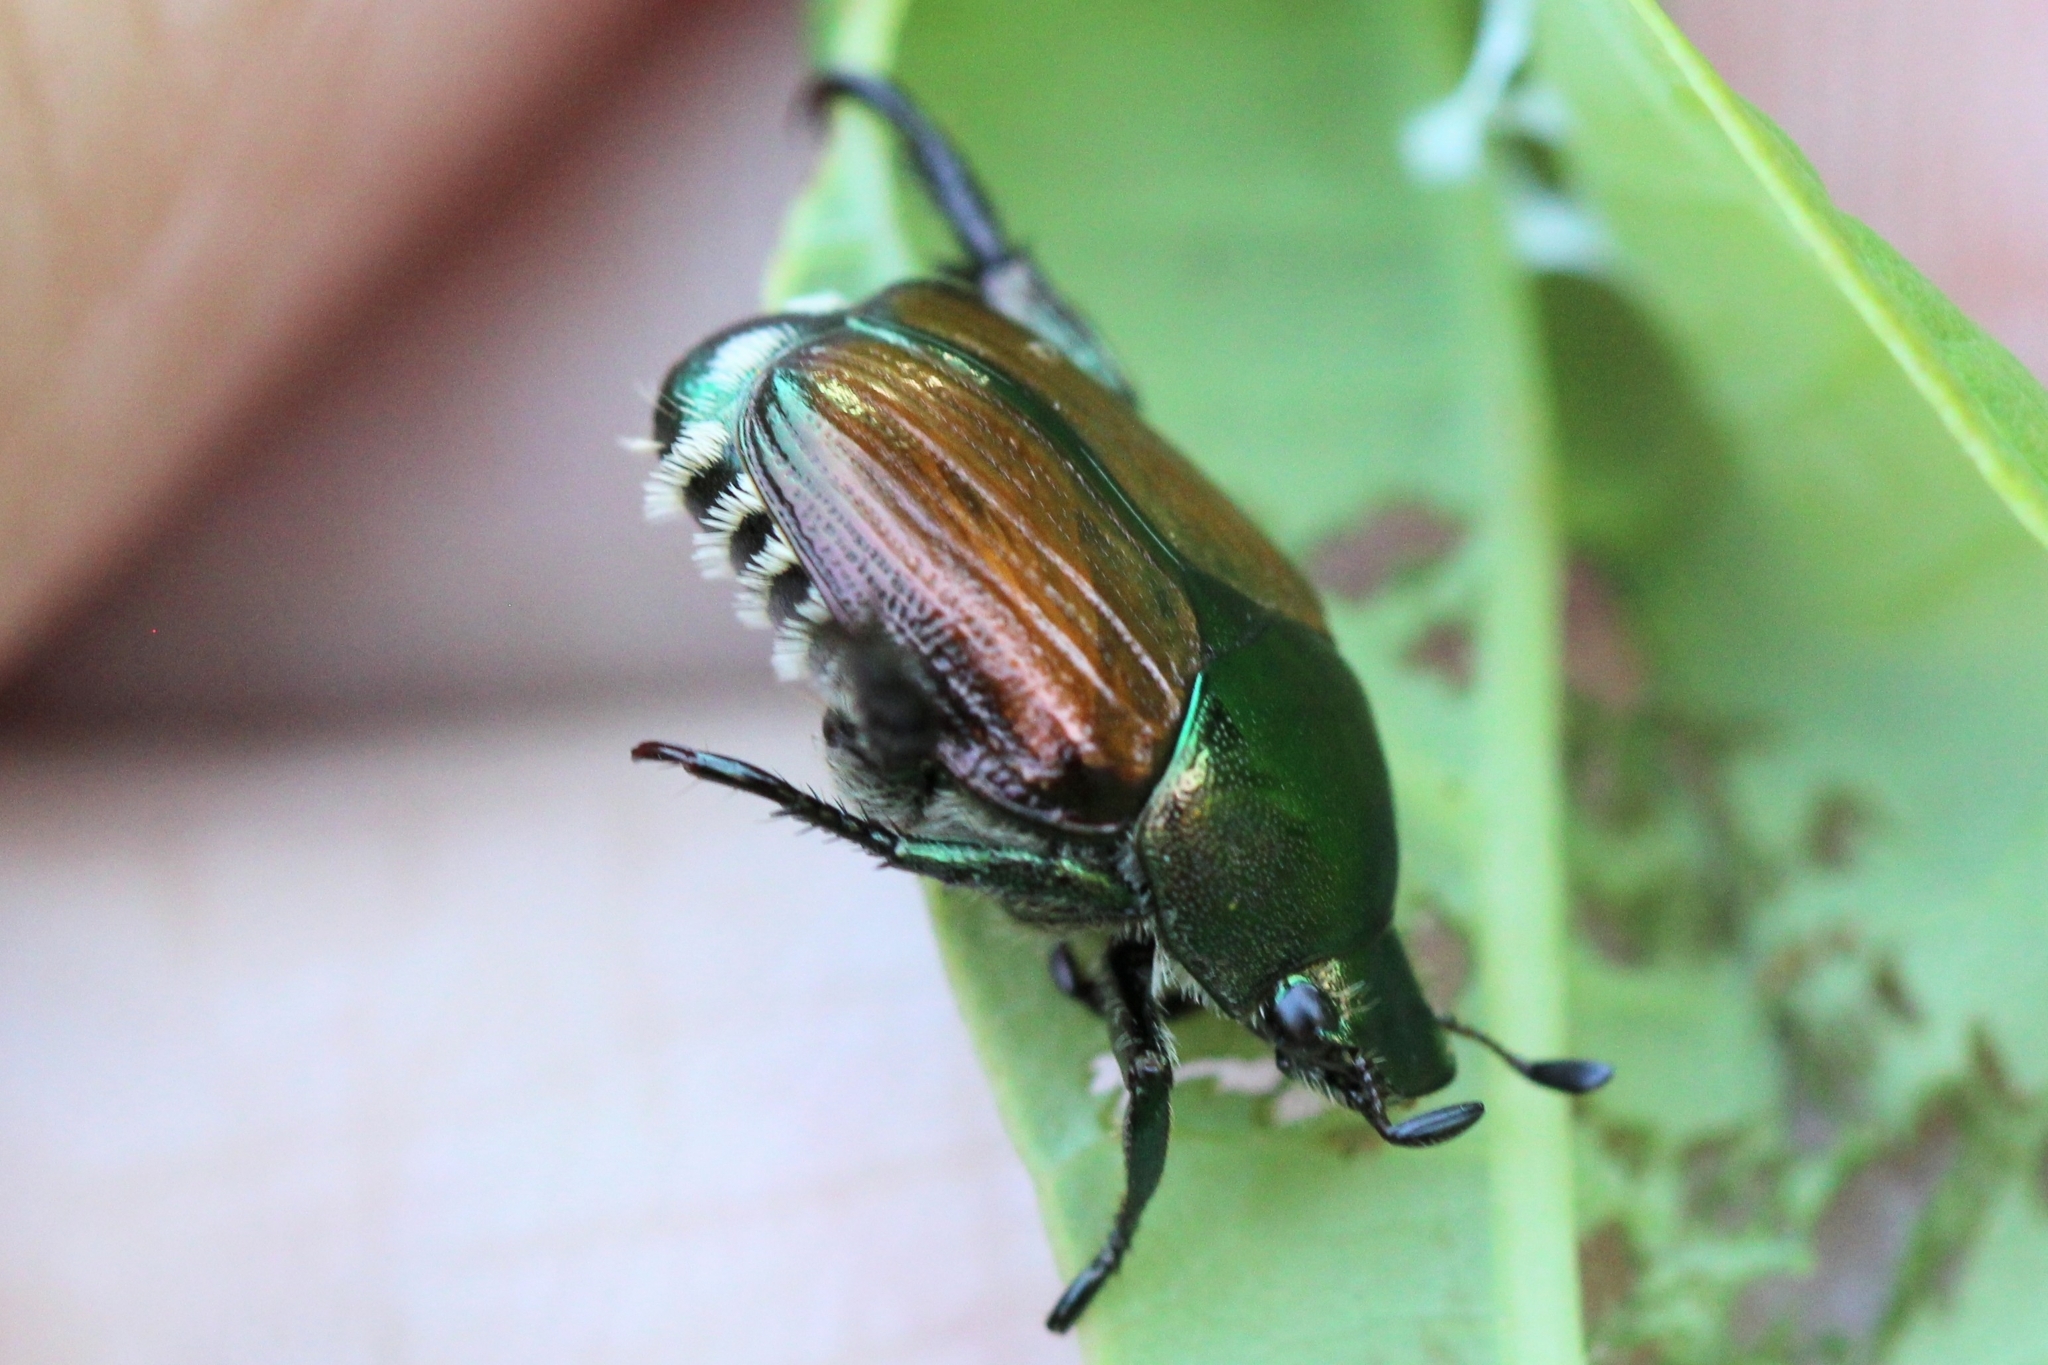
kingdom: Animalia
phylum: Arthropoda
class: Insecta
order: Coleoptera
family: Scarabaeidae
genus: Popillia
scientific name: Popillia japonica
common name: Japanese beetle
